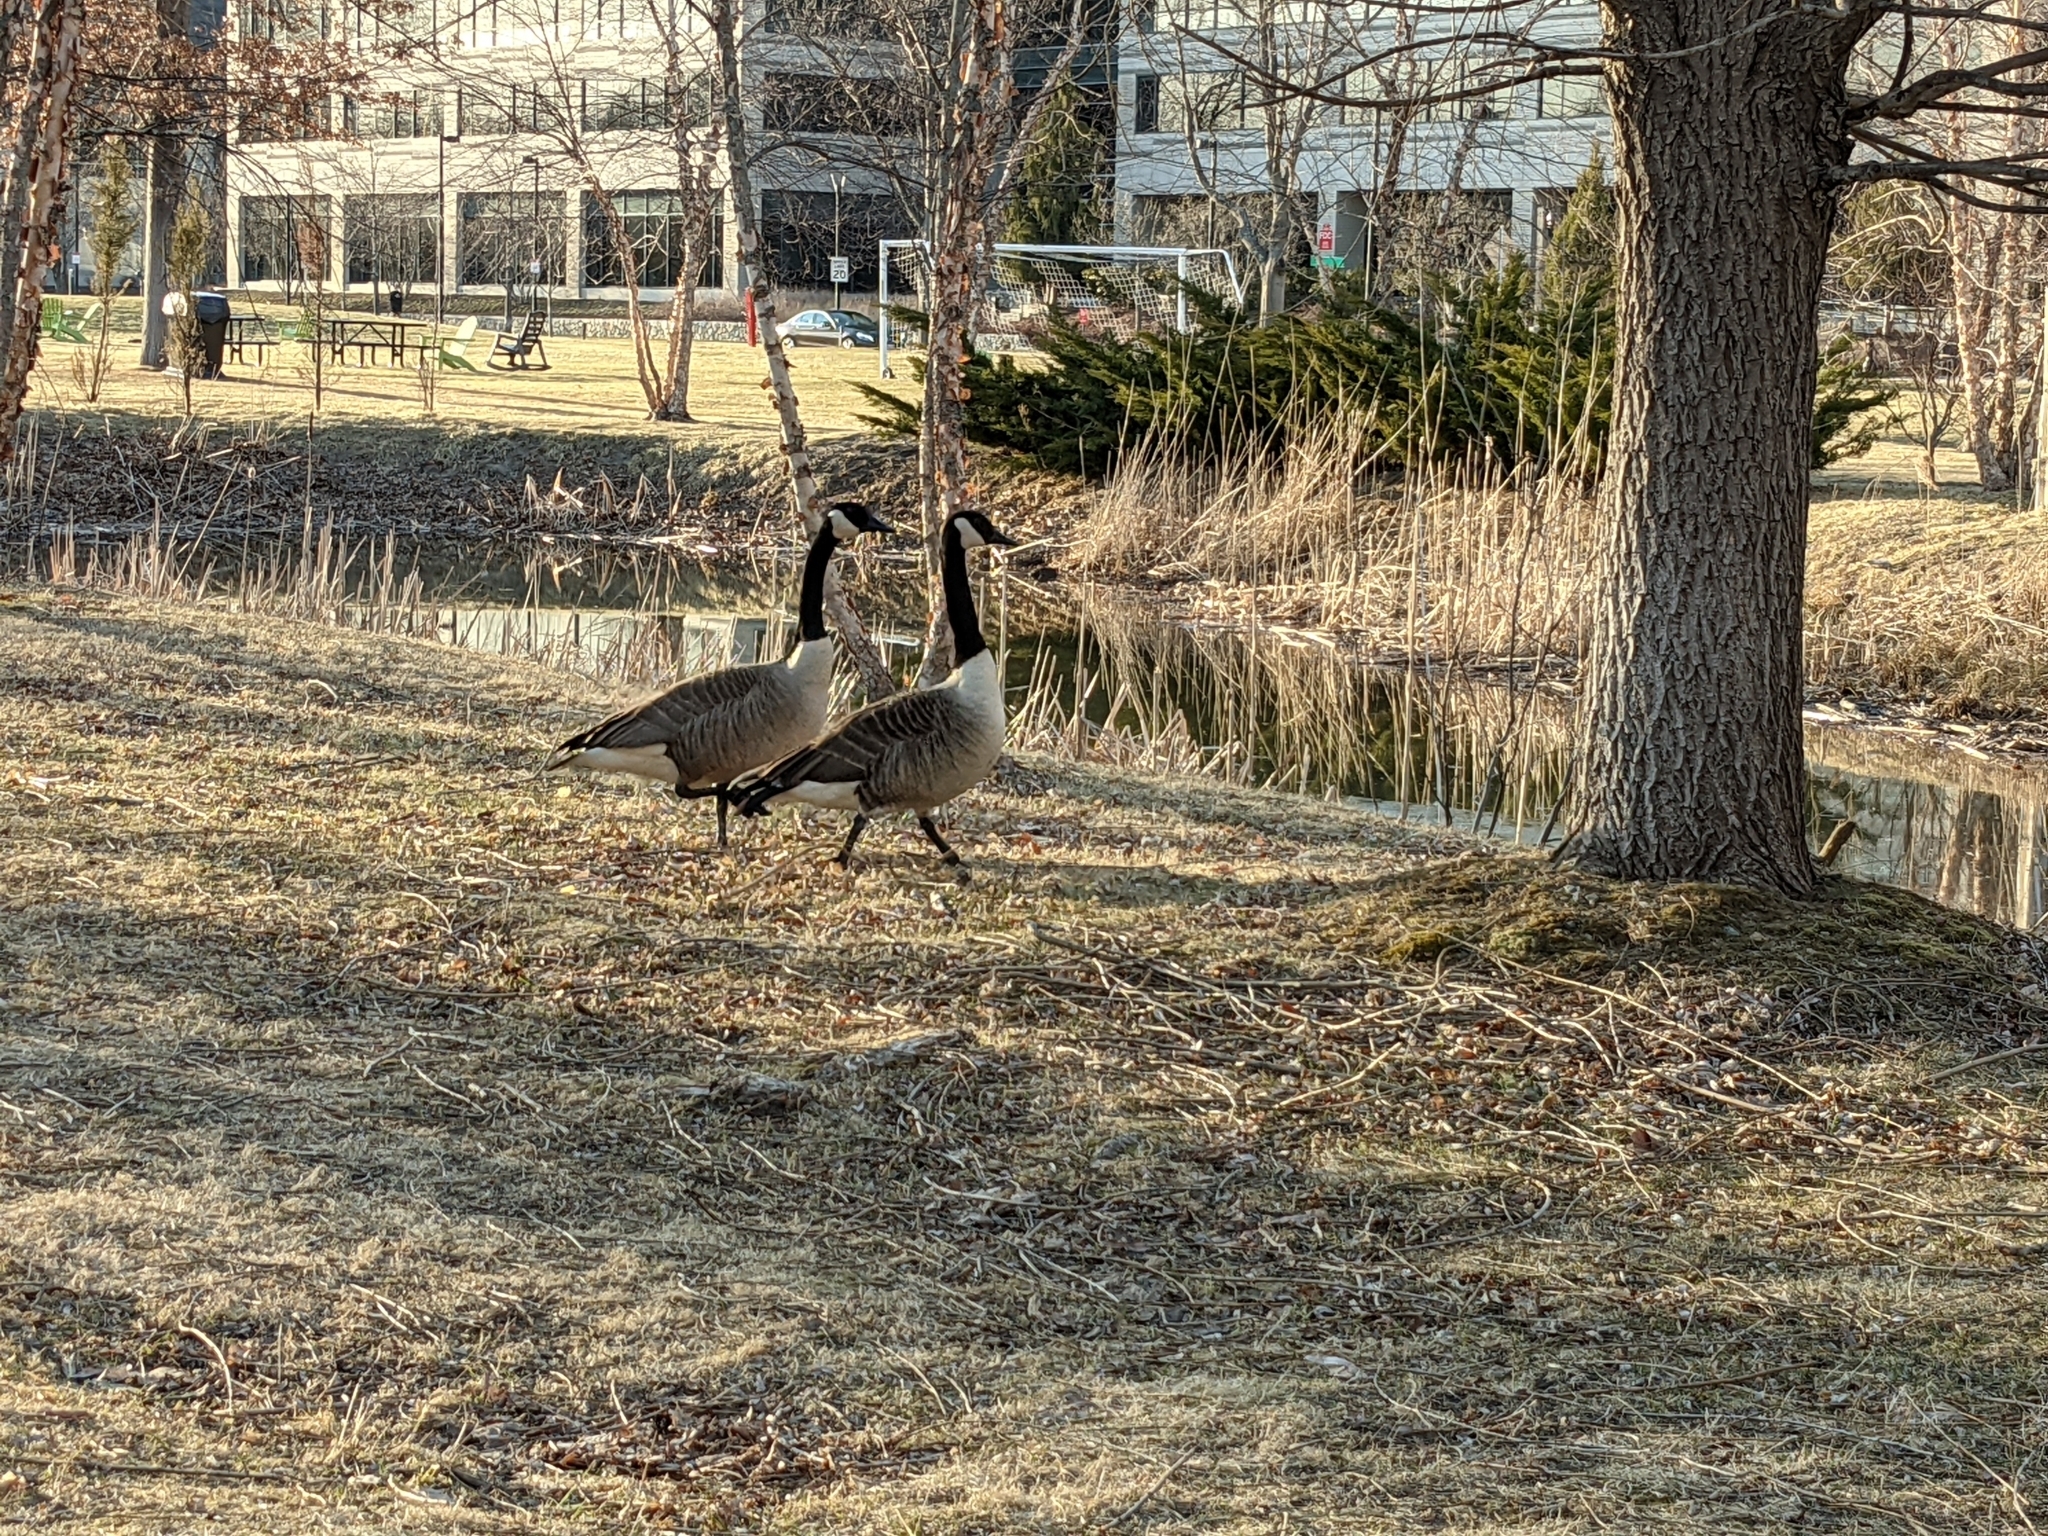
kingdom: Animalia
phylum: Chordata
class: Aves
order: Anseriformes
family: Anatidae
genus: Branta
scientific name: Branta canadensis
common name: Canada goose
